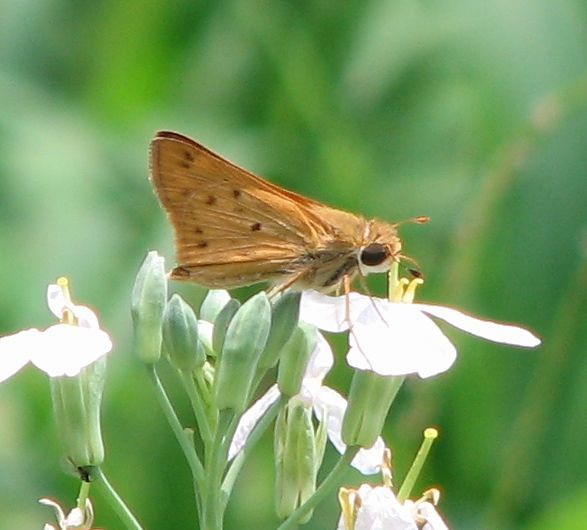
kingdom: Animalia
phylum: Arthropoda
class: Insecta
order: Lepidoptera
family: Hesperiidae
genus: Hylephila
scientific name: Hylephila phyleus
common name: Fiery skipper
